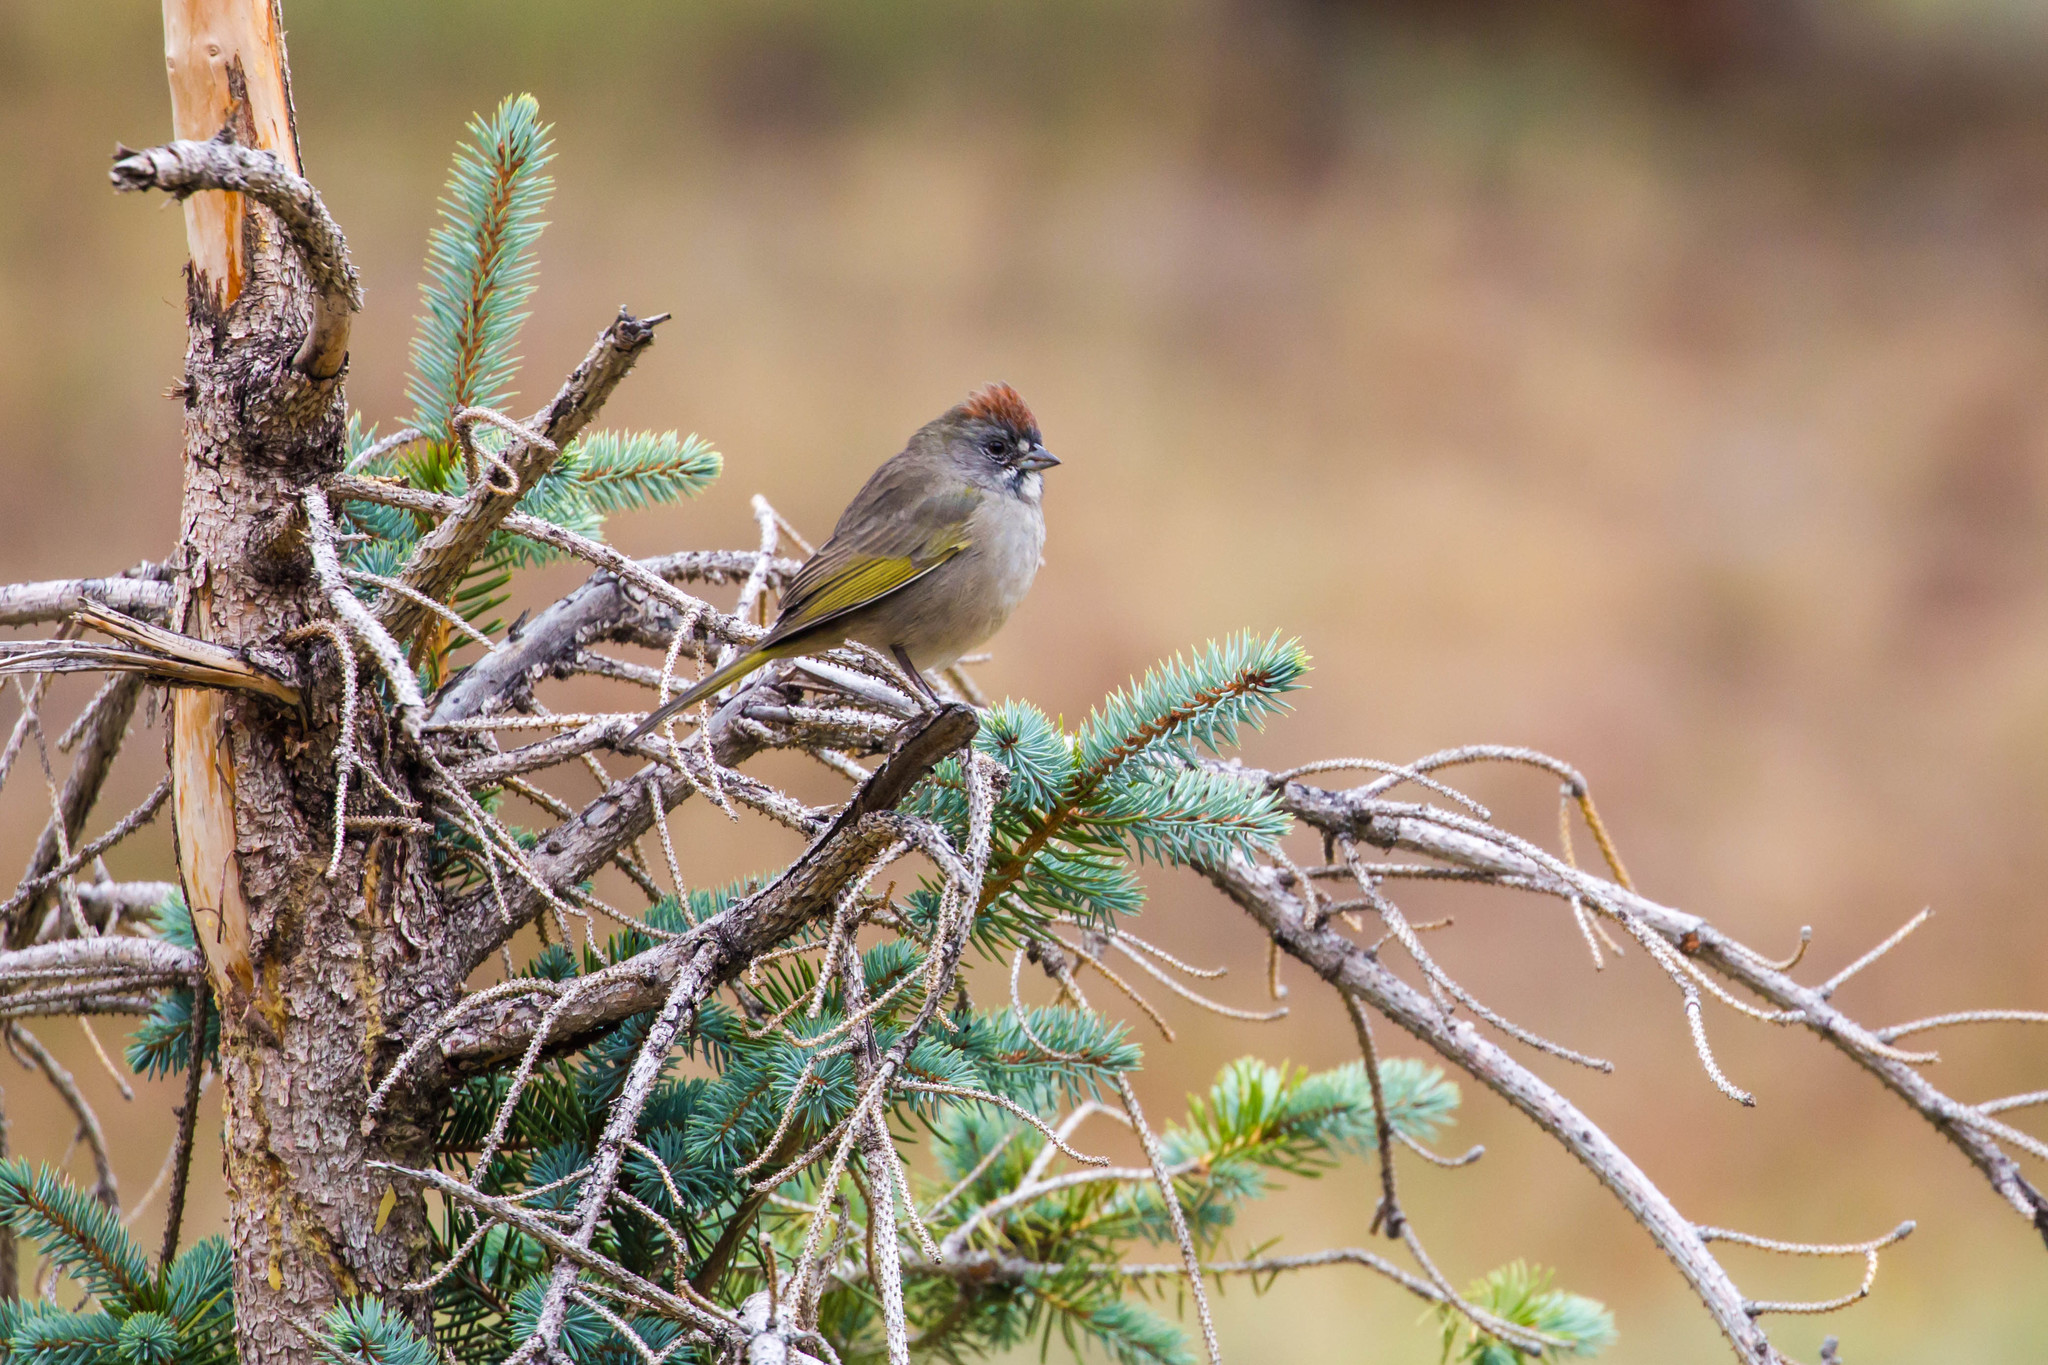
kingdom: Animalia
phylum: Chordata
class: Aves
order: Passeriformes
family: Passerellidae
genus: Pipilo
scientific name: Pipilo chlorurus
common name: Green-tailed towhee
